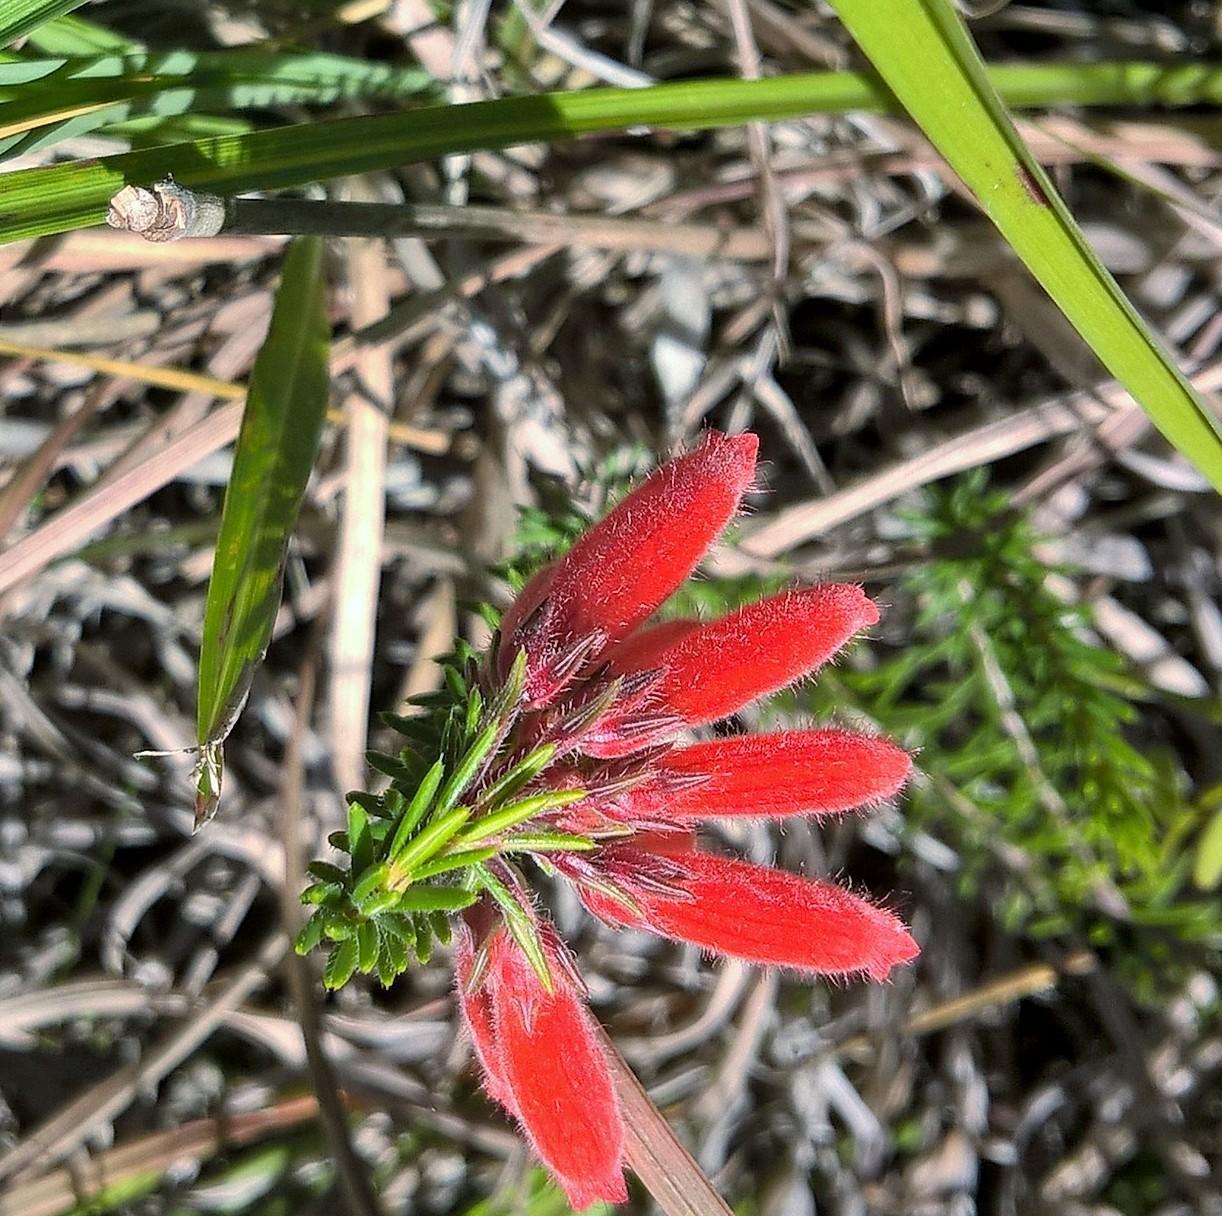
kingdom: Plantae
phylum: Tracheophyta
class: Magnoliopsida
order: Ericales
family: Ericaceae
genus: Erica
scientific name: Erica cerinthoides
